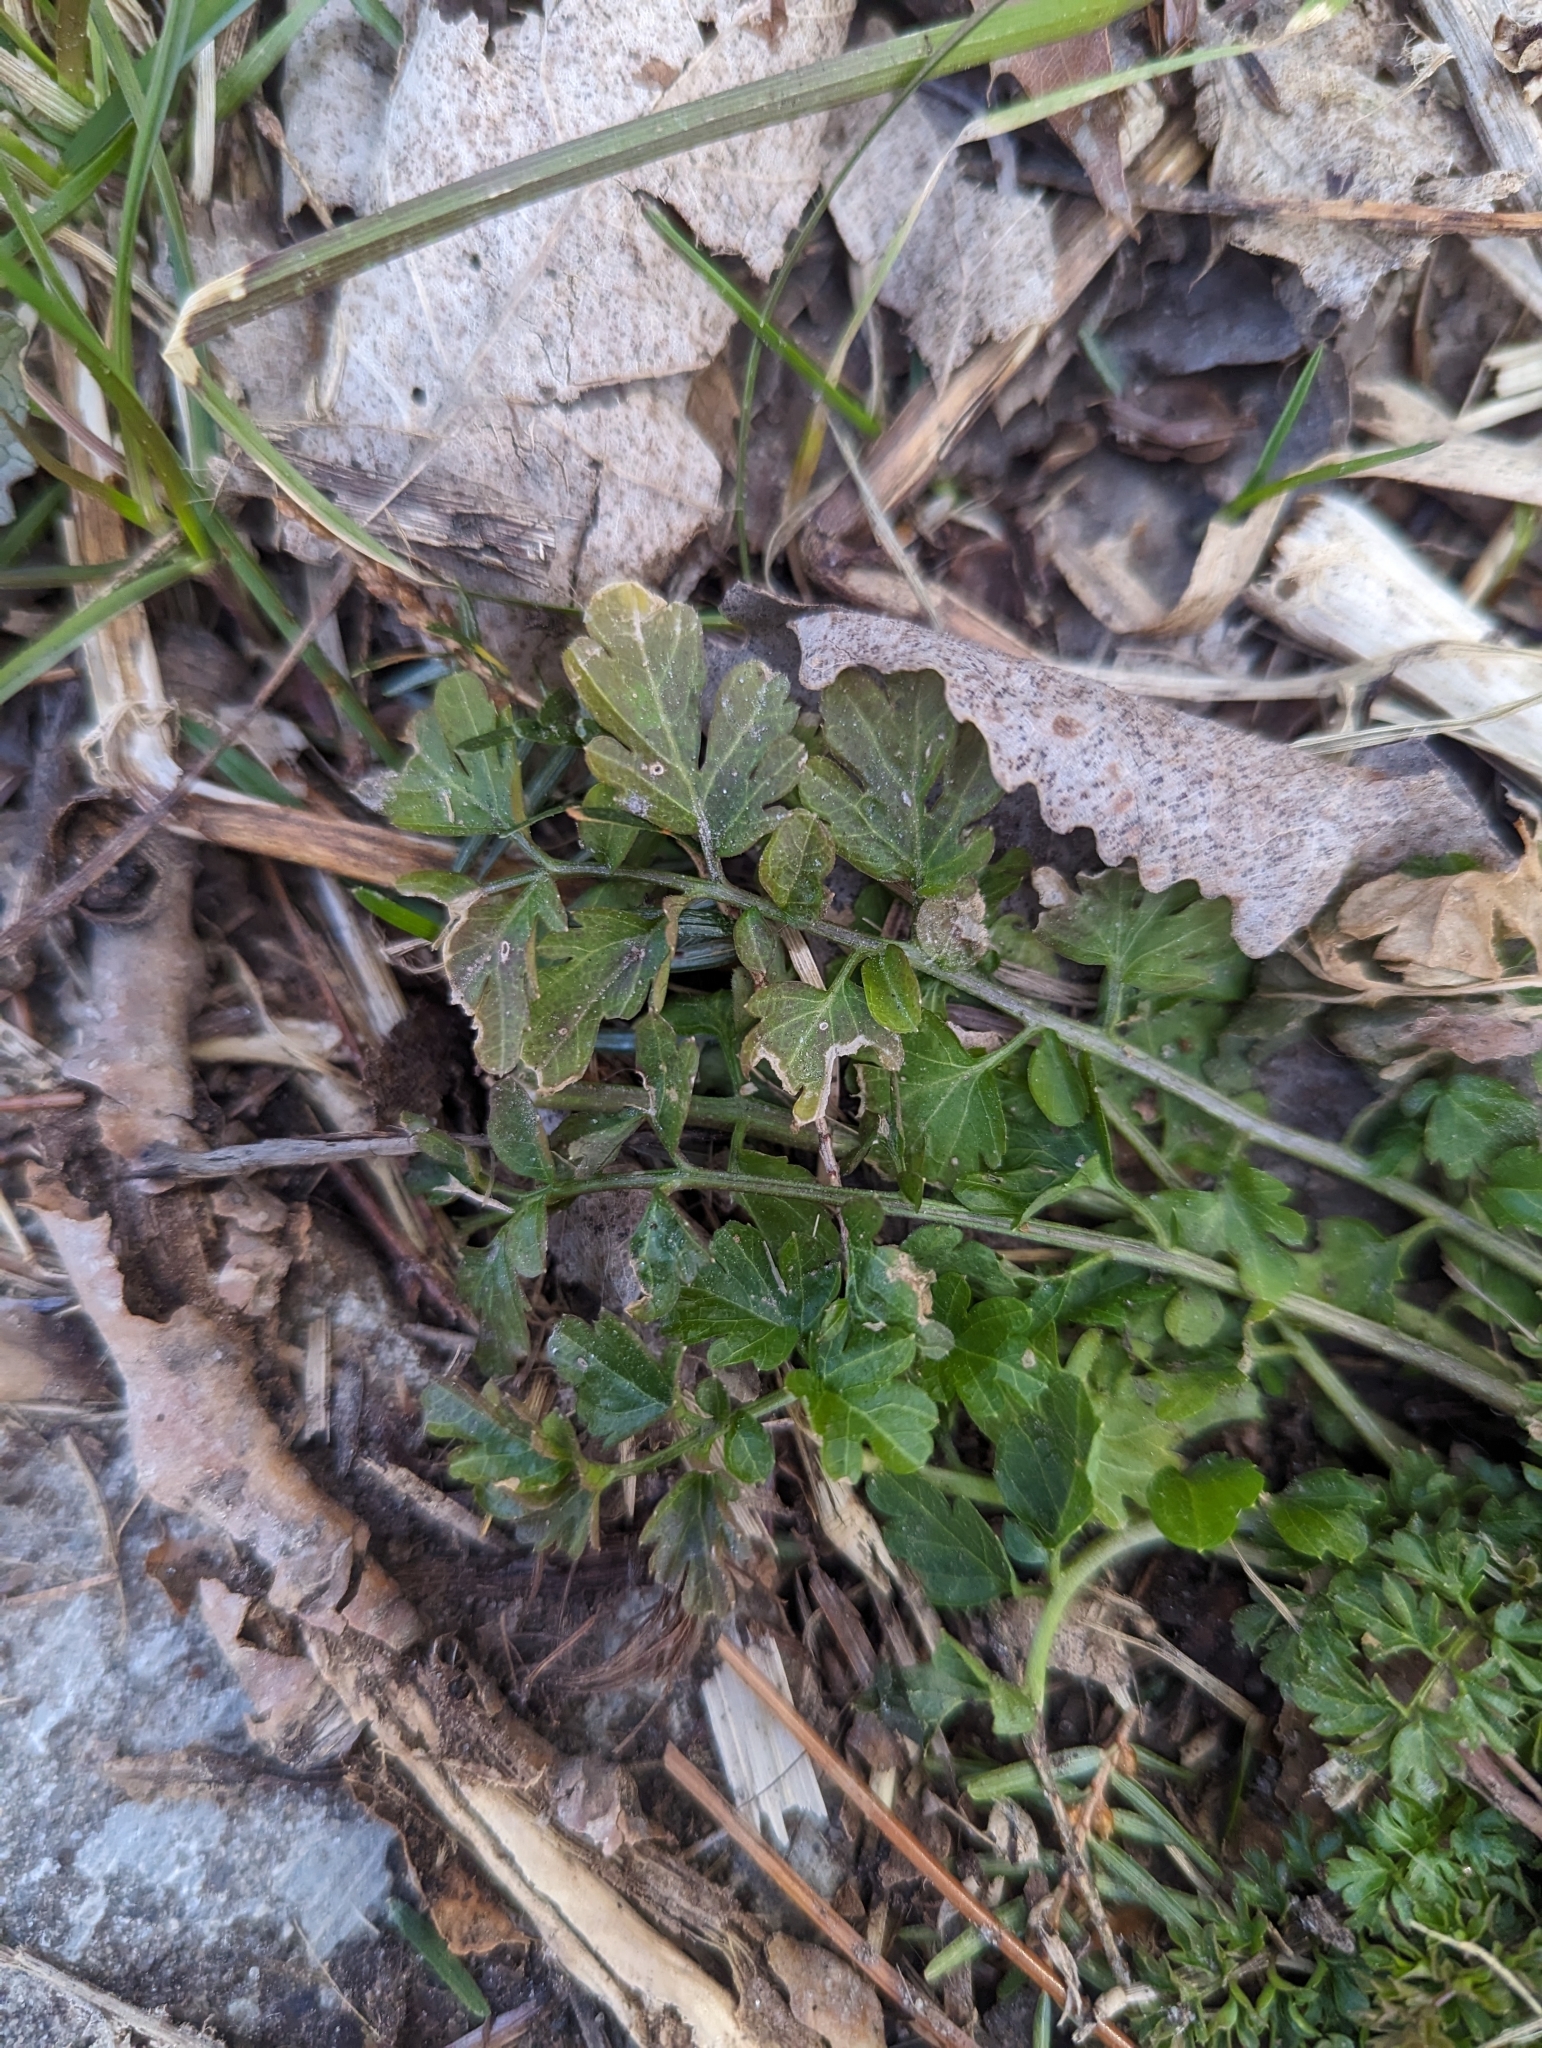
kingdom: Plantae
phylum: Tracheophyta
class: Magnoliopsida
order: Brassicales
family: Brassicaceae
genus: Cardamine
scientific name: Cardamine impatiens
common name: Narrow-leaved bitter-cress
